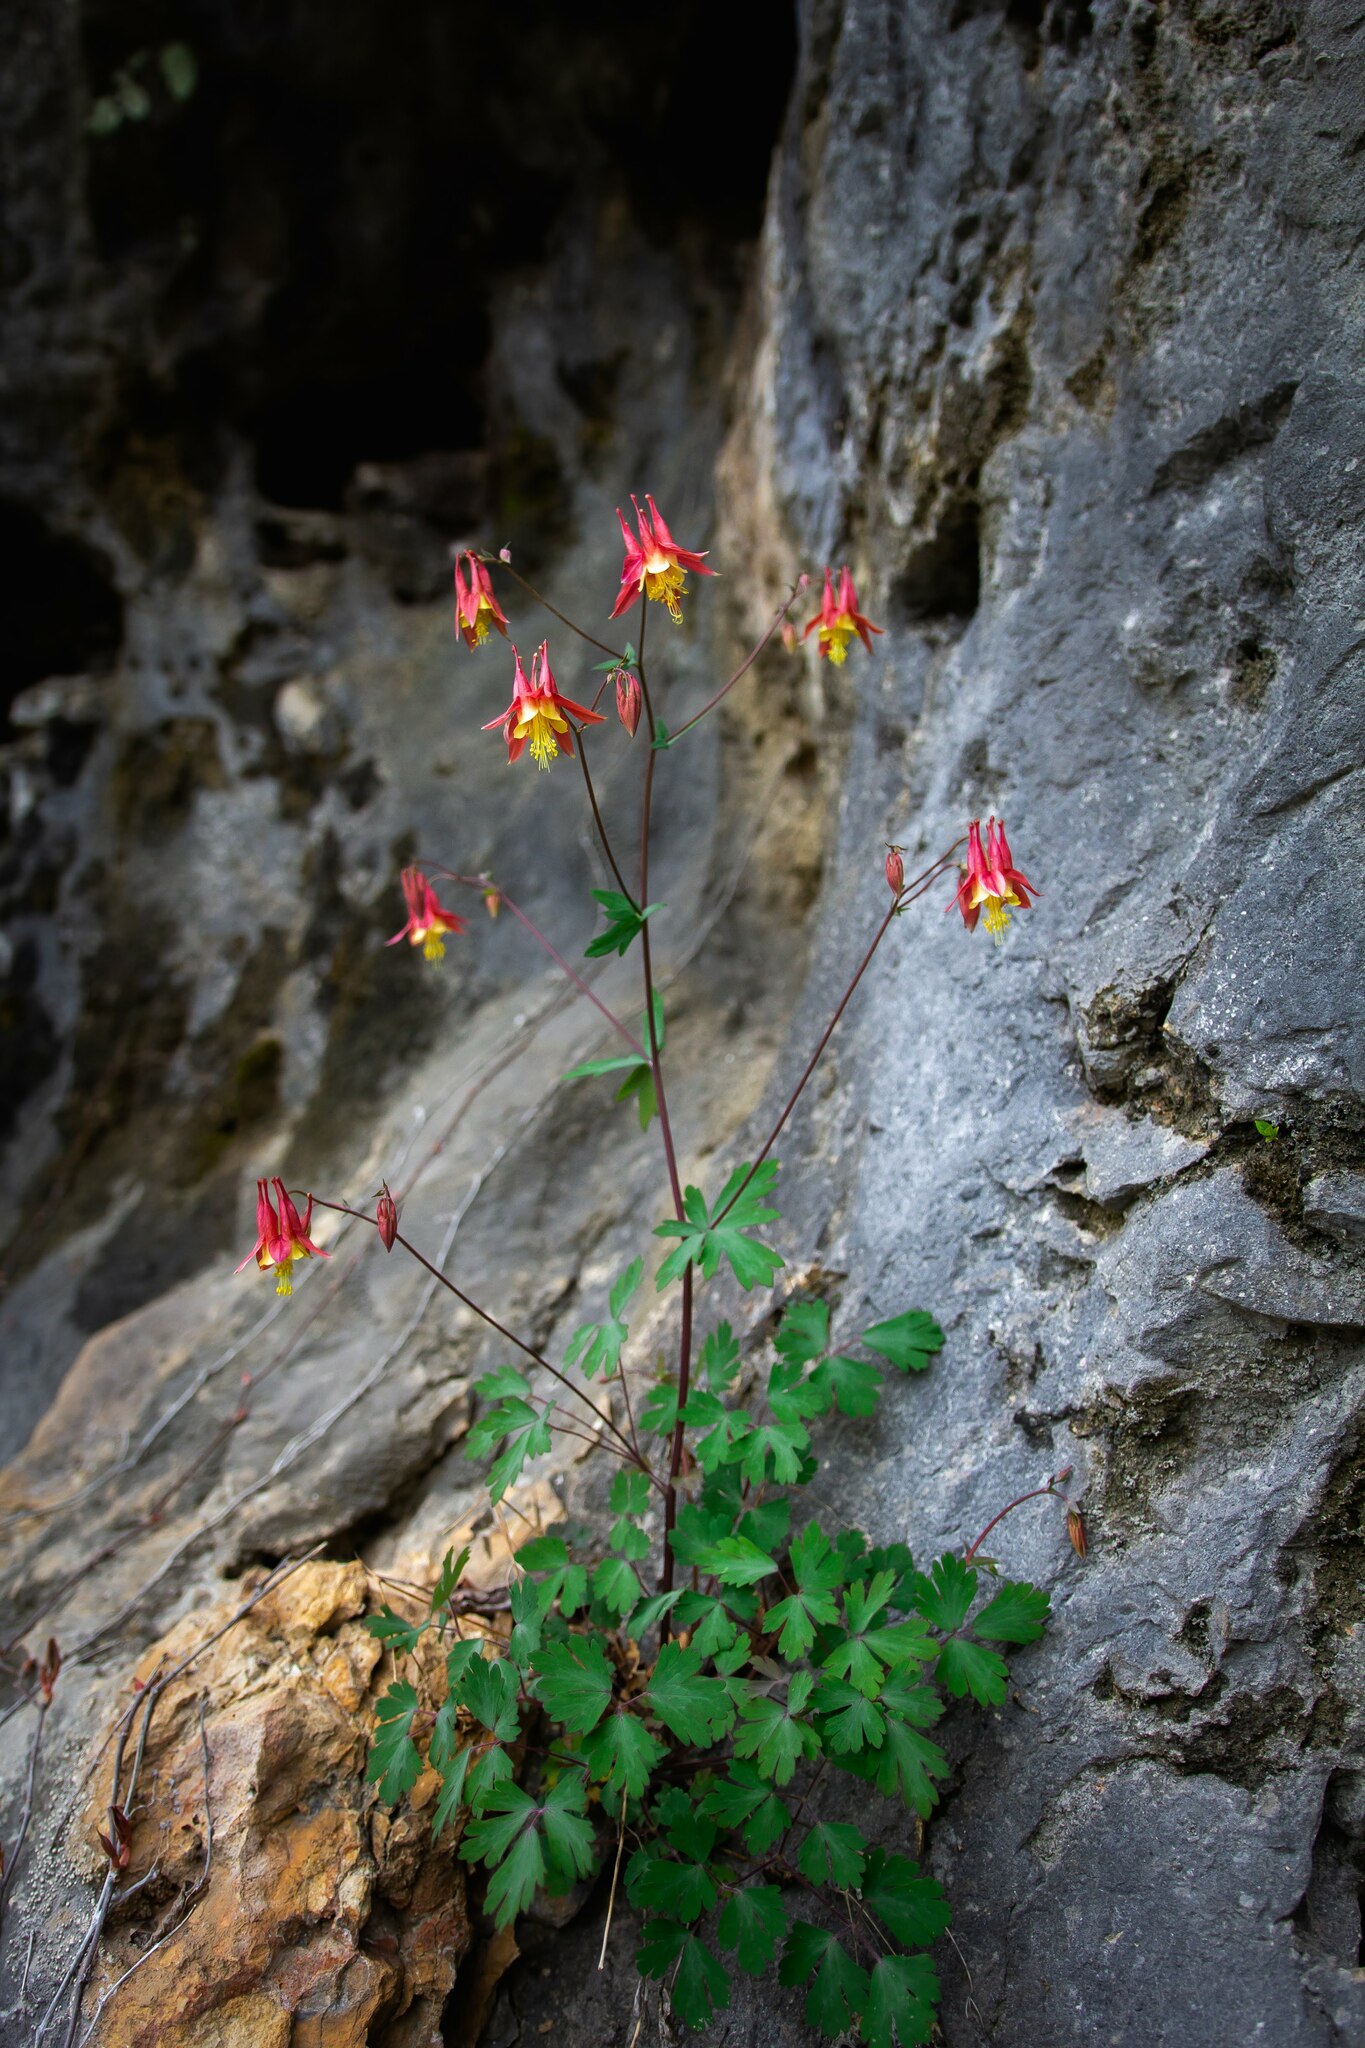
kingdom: Plantae
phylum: Tracheophyta
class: Magnoliopsida
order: Ranunculales
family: Ranunculaceae
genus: Aquilegia
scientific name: Aquilegia canadensis
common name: American columbine
